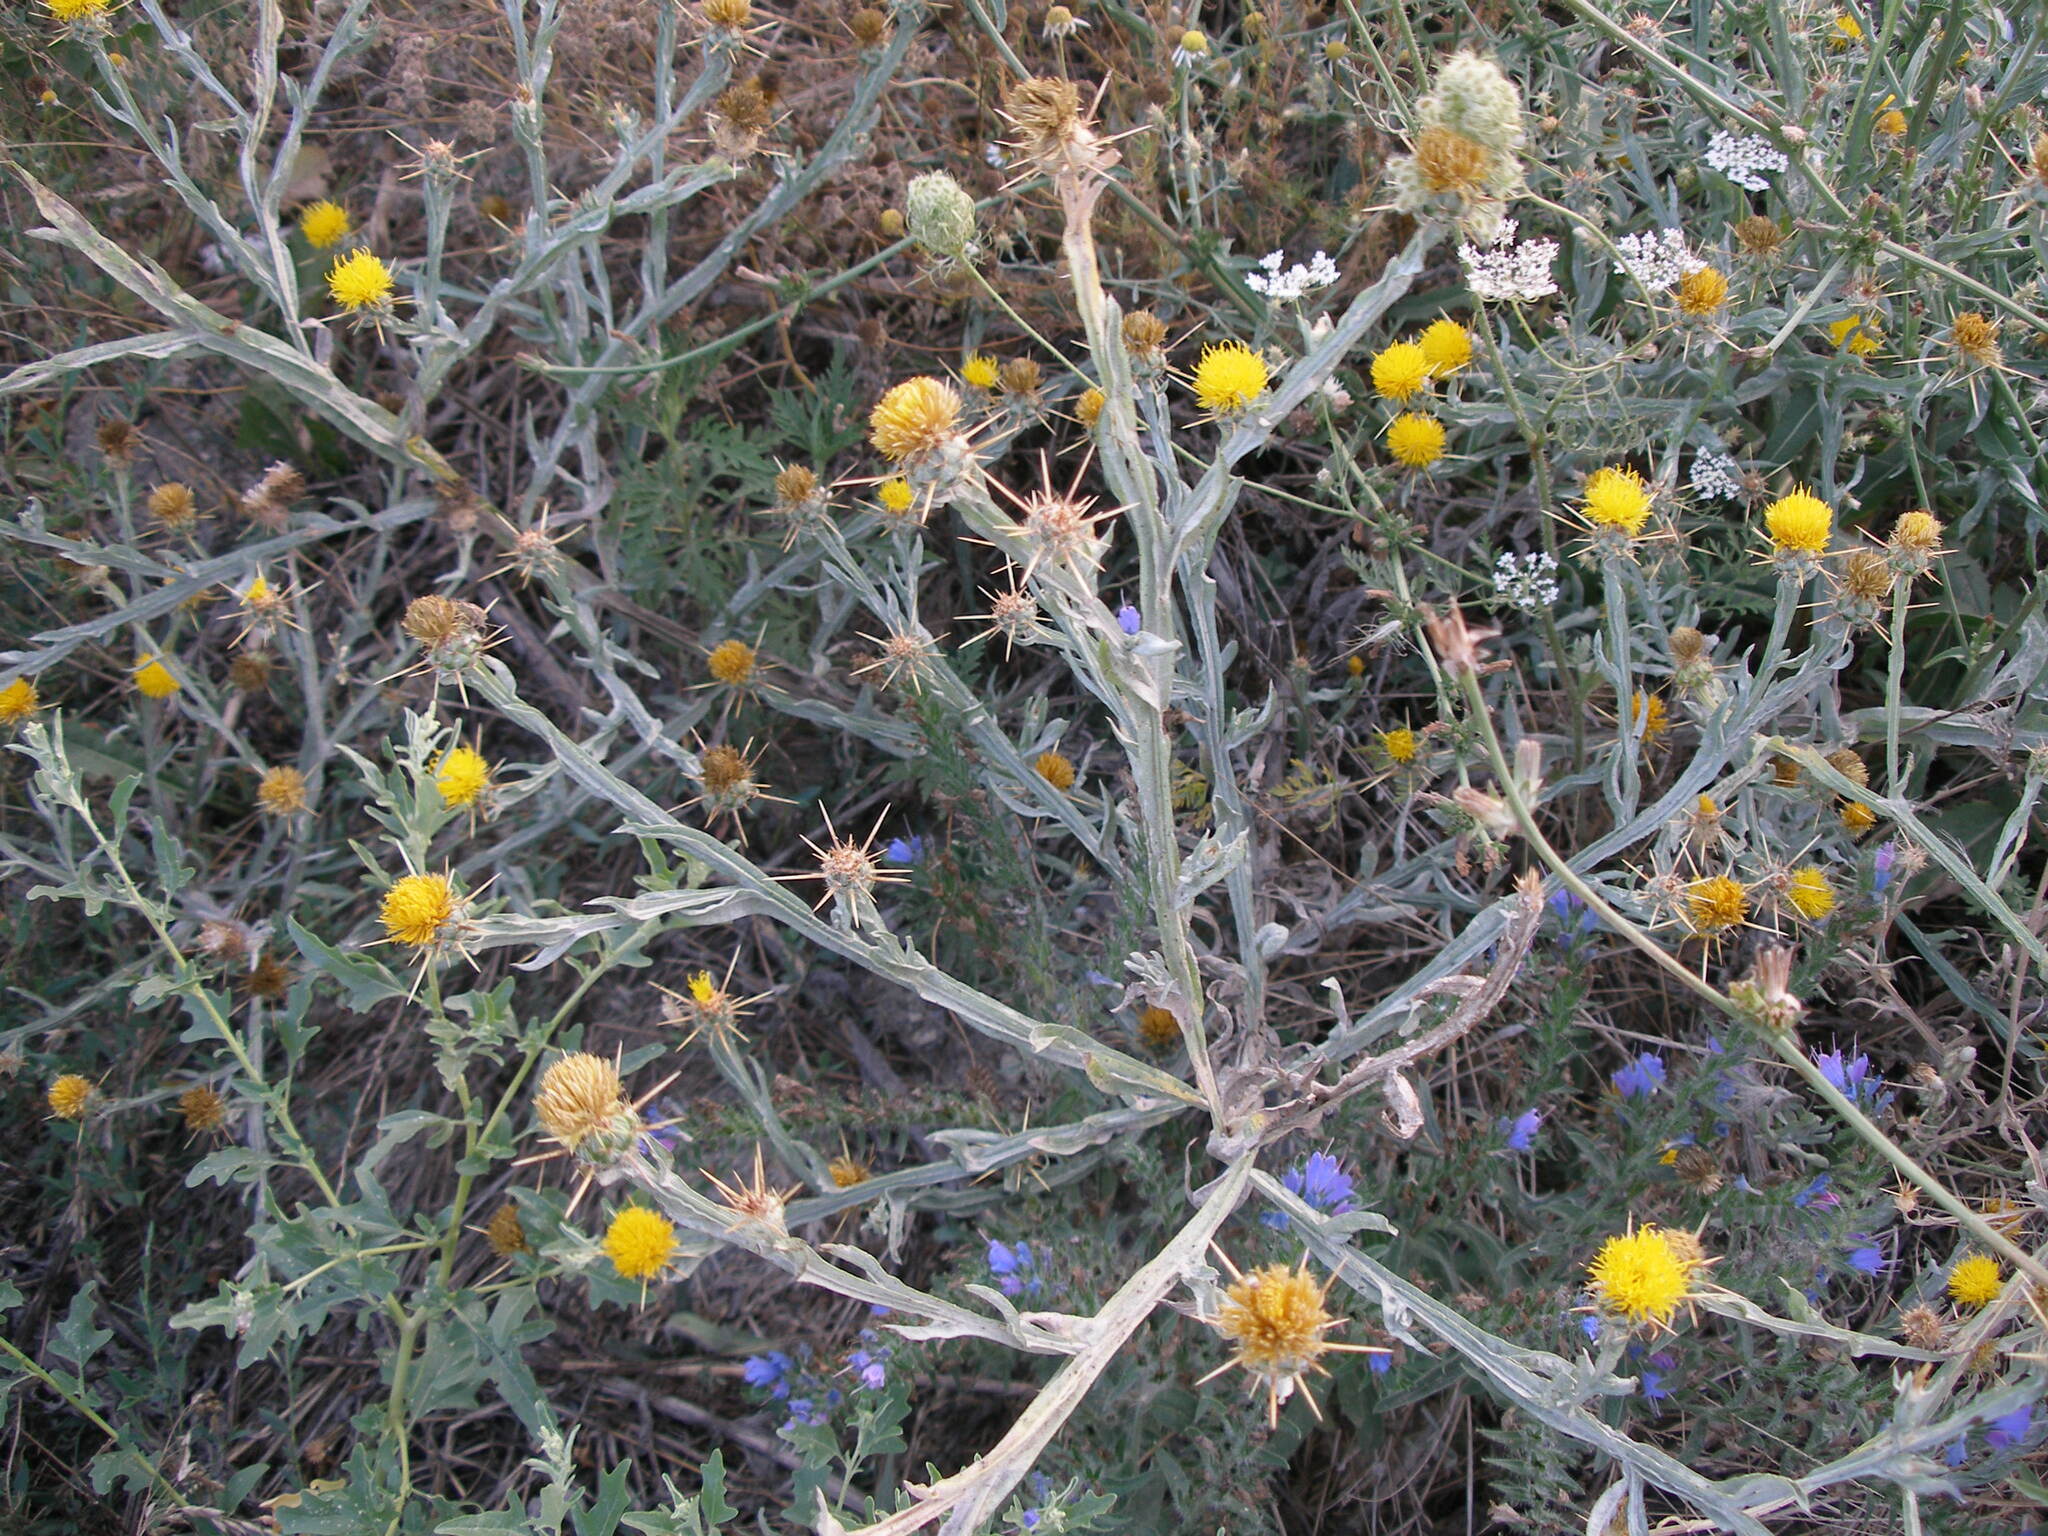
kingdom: Plantae
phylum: Tracheophyta
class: Magnoliopsida
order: Asterales
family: Asteraceae
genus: Centaurea
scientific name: Centaurea solstitialis
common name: Yellow star-thistle
